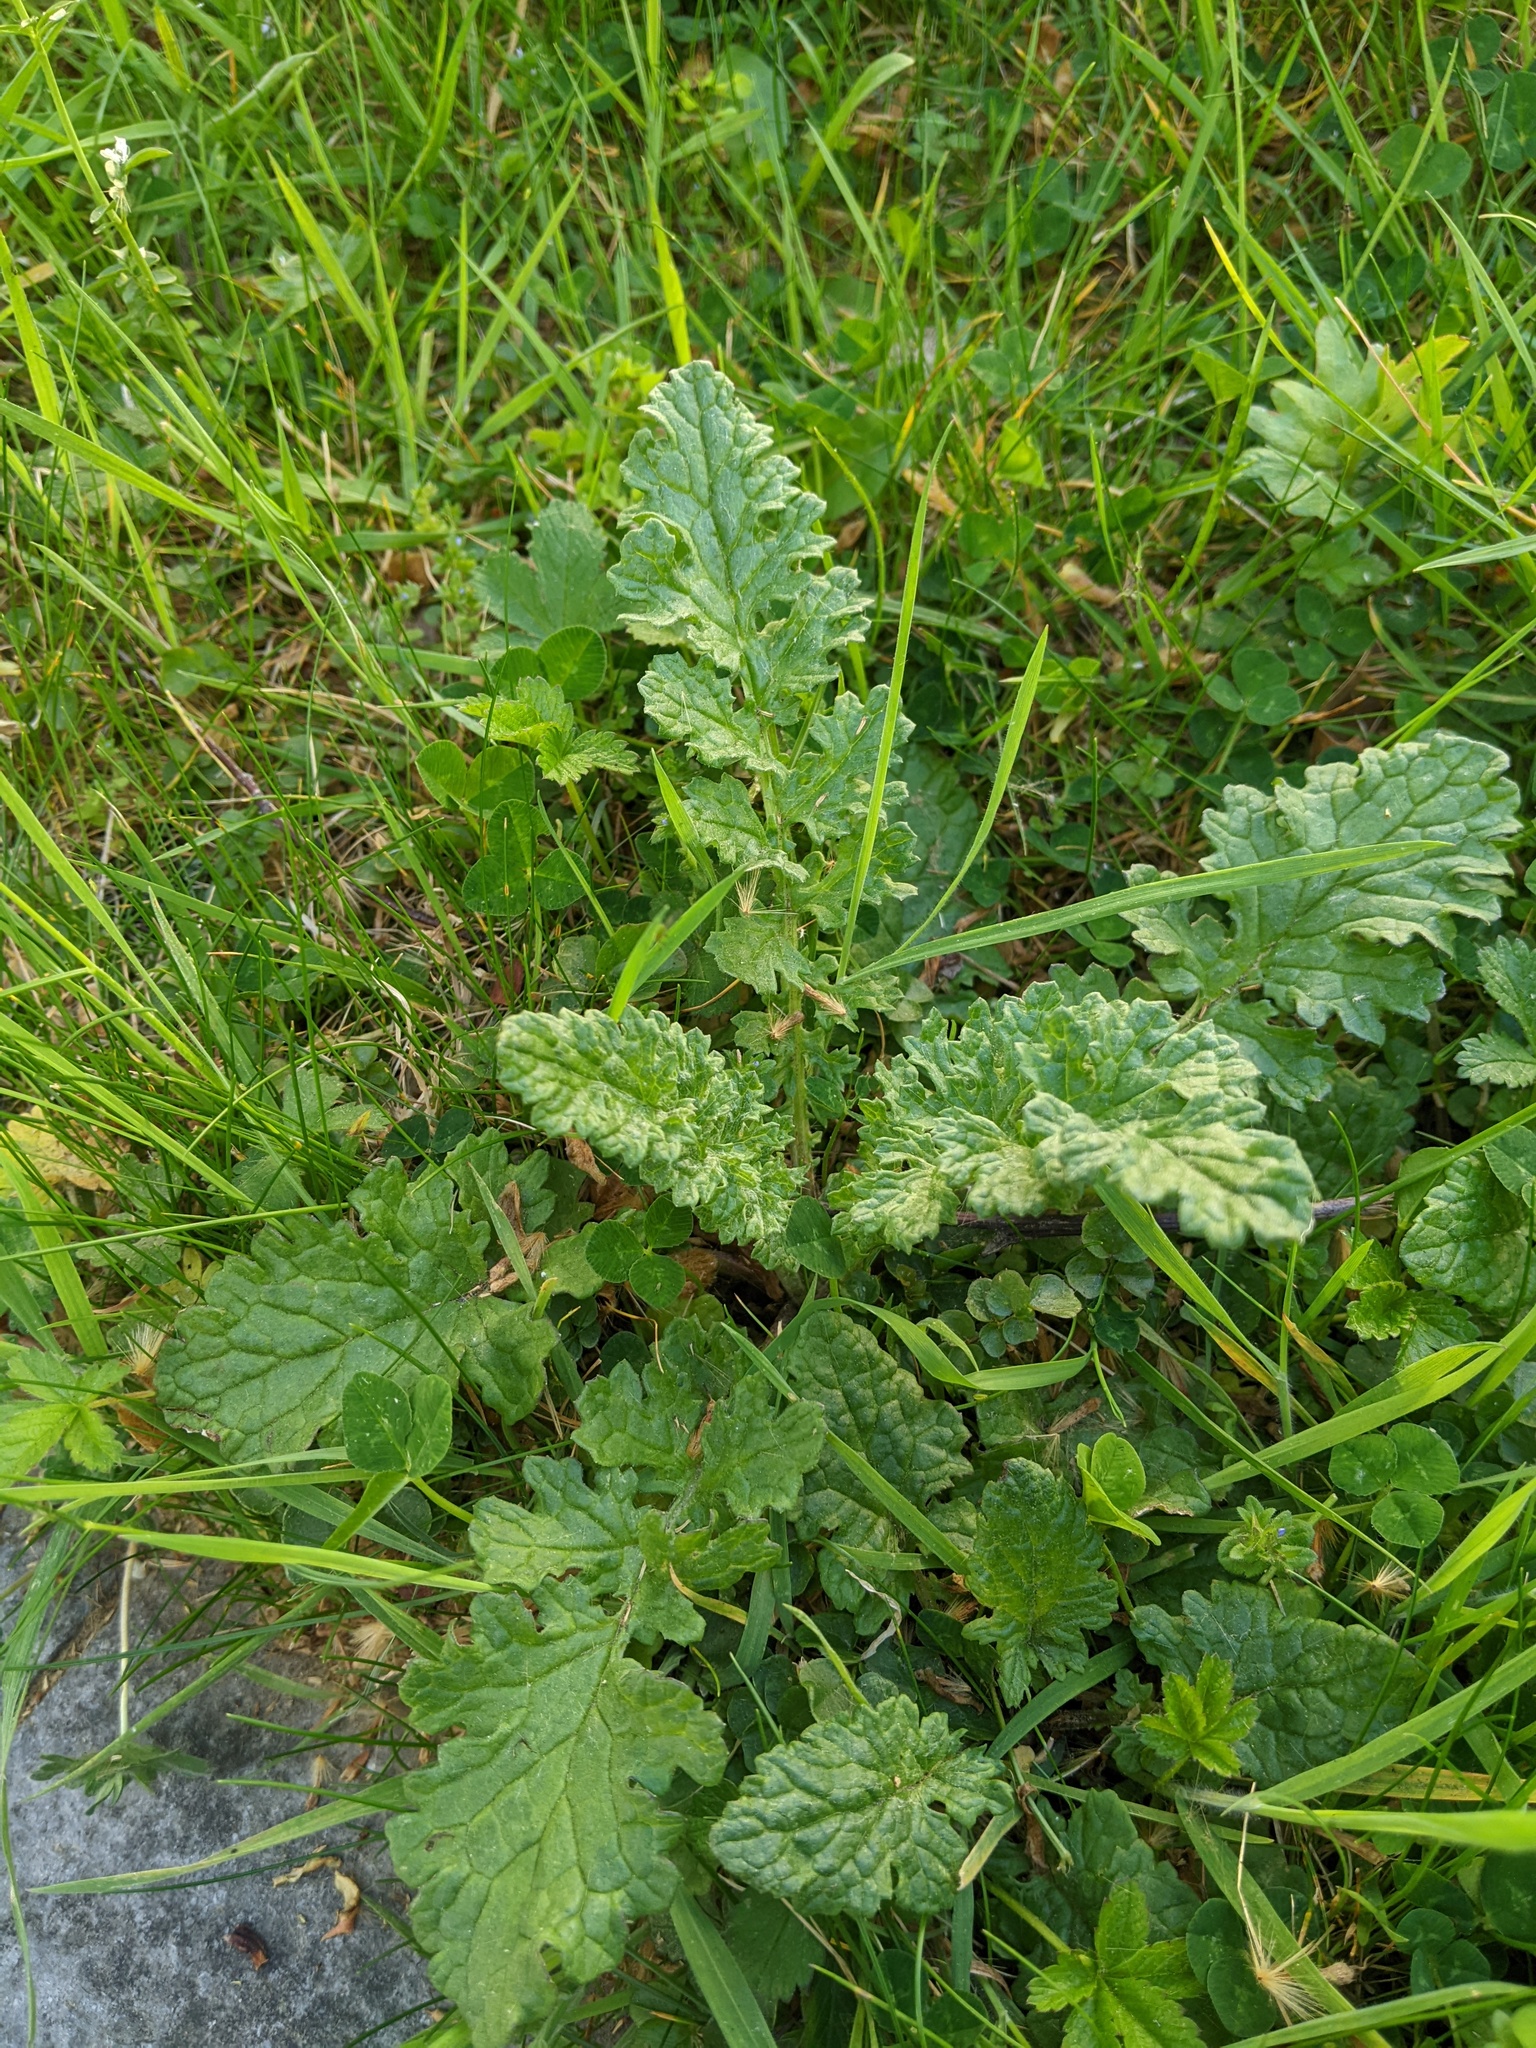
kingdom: Plantae
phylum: Tracheophyta
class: Magnoliopsida
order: Asterales
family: Asteraceae
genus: Jacobaea
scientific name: Jacobaea vulgaris
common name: Stinking willie
